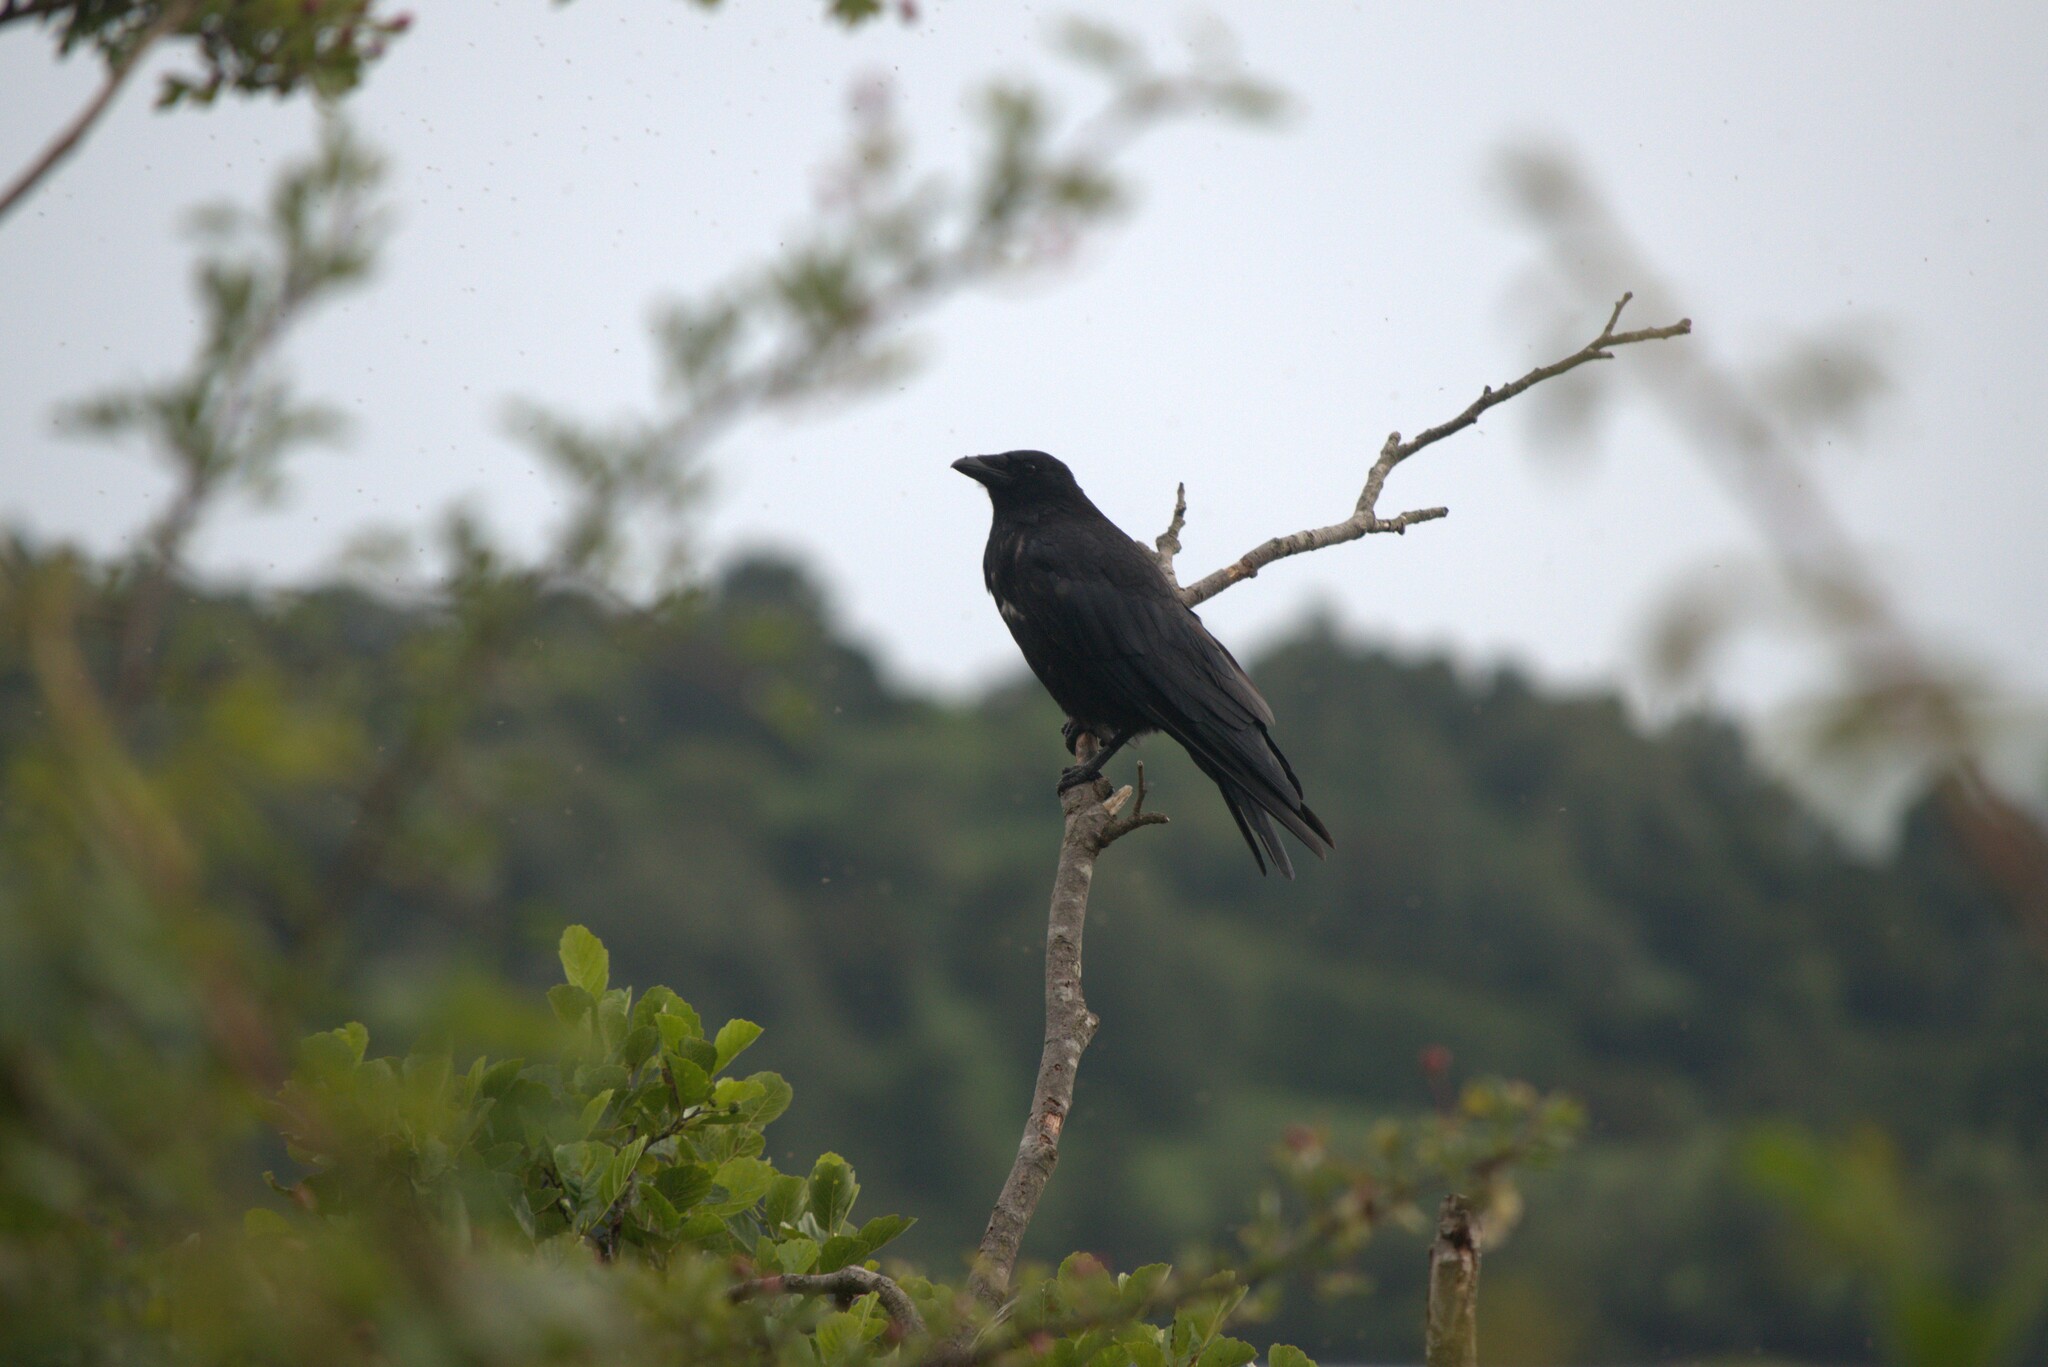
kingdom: Animalia
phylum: Chordata
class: Aves
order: Passeriformes
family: Corvidae
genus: Corvus
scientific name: Corvus corone
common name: Carrion crow
